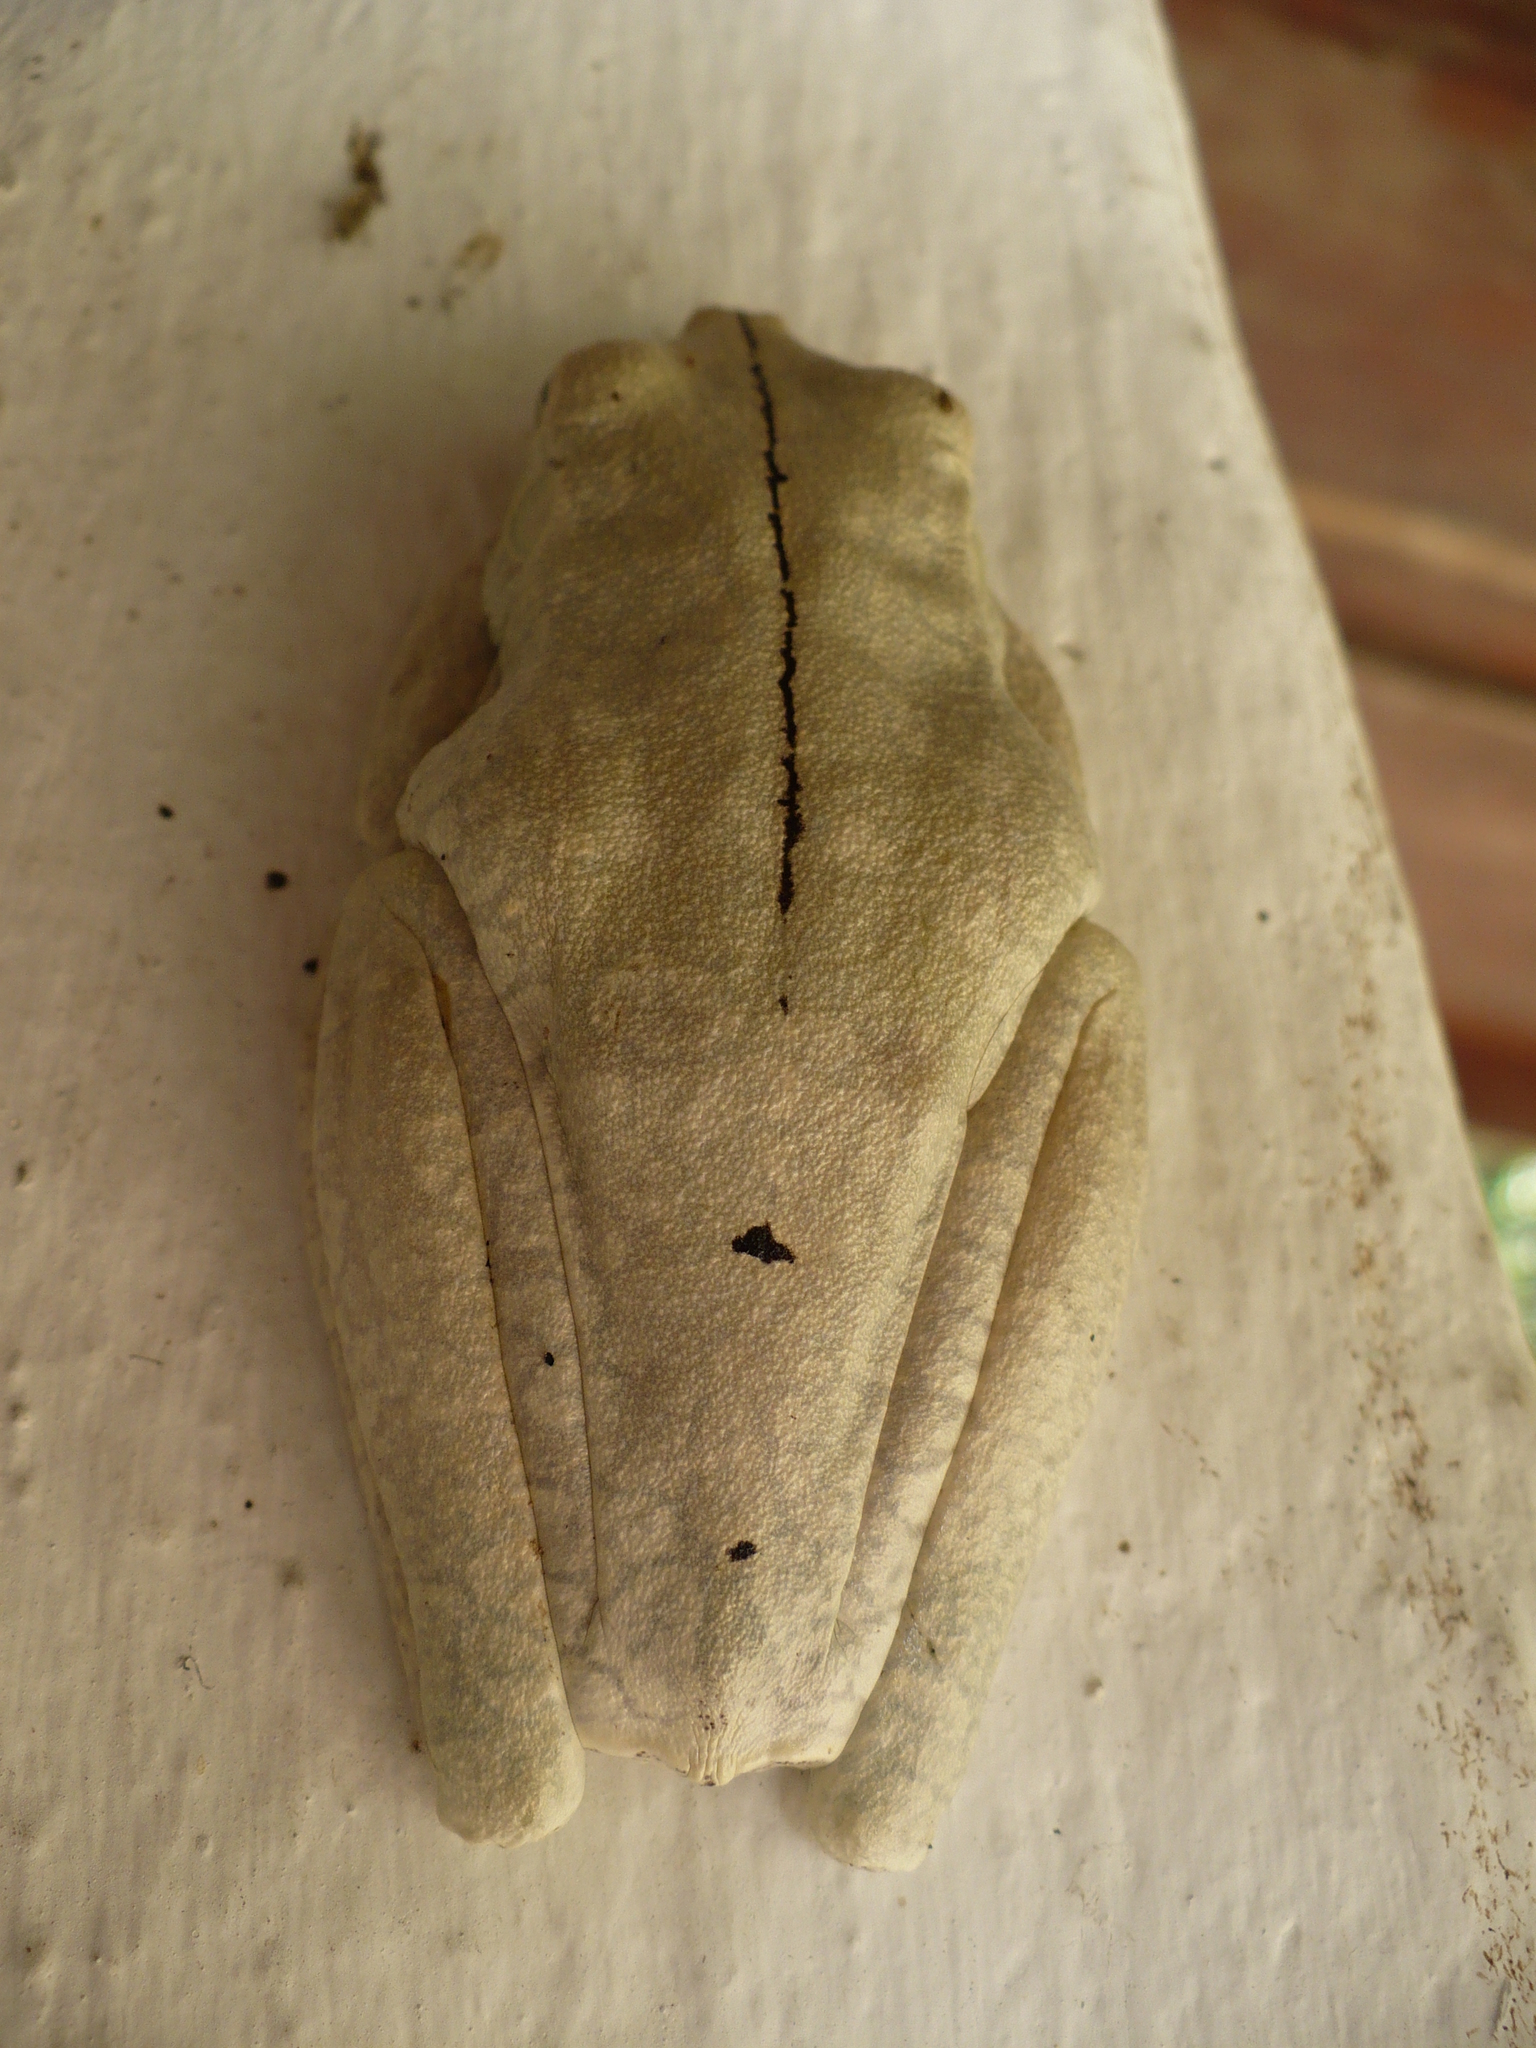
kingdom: Animalia
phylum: Chordata
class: Amphibia
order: Anura
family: Hylidae
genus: Boana
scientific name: Boana rosenbergi
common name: Rosenberg´s gladiator treefrog
